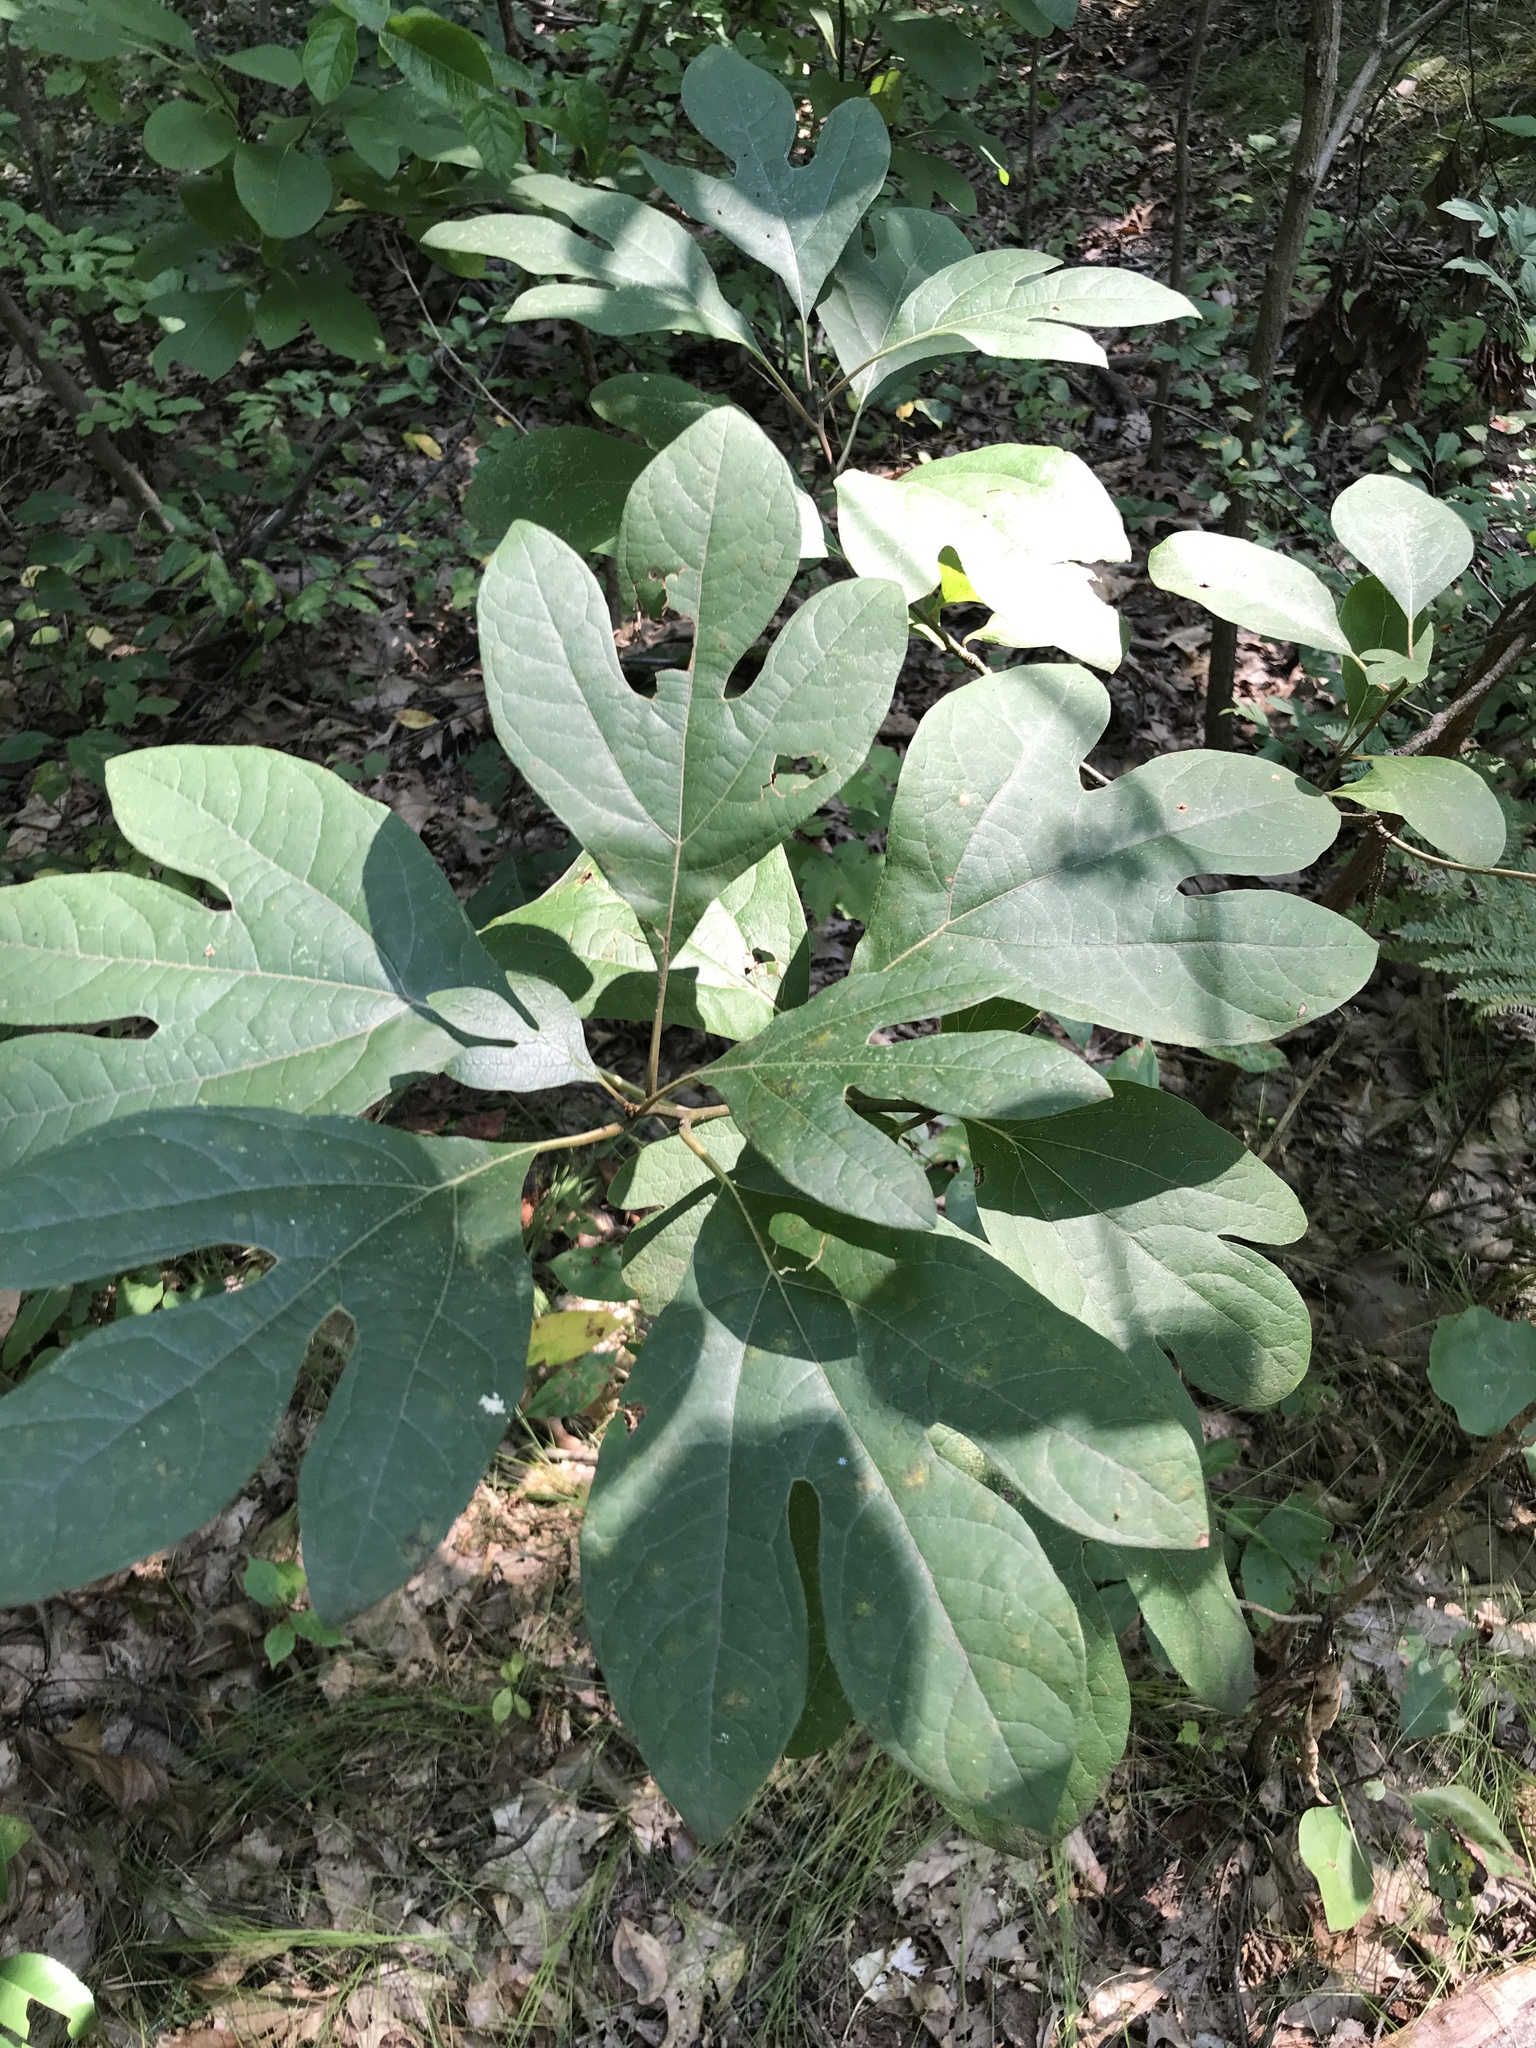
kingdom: Plantae
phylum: Tracheophyta
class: Magnoliopsida
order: Laurales
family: Lauraceae
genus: Sassafras
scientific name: Sassafras albidum
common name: Sassafras
